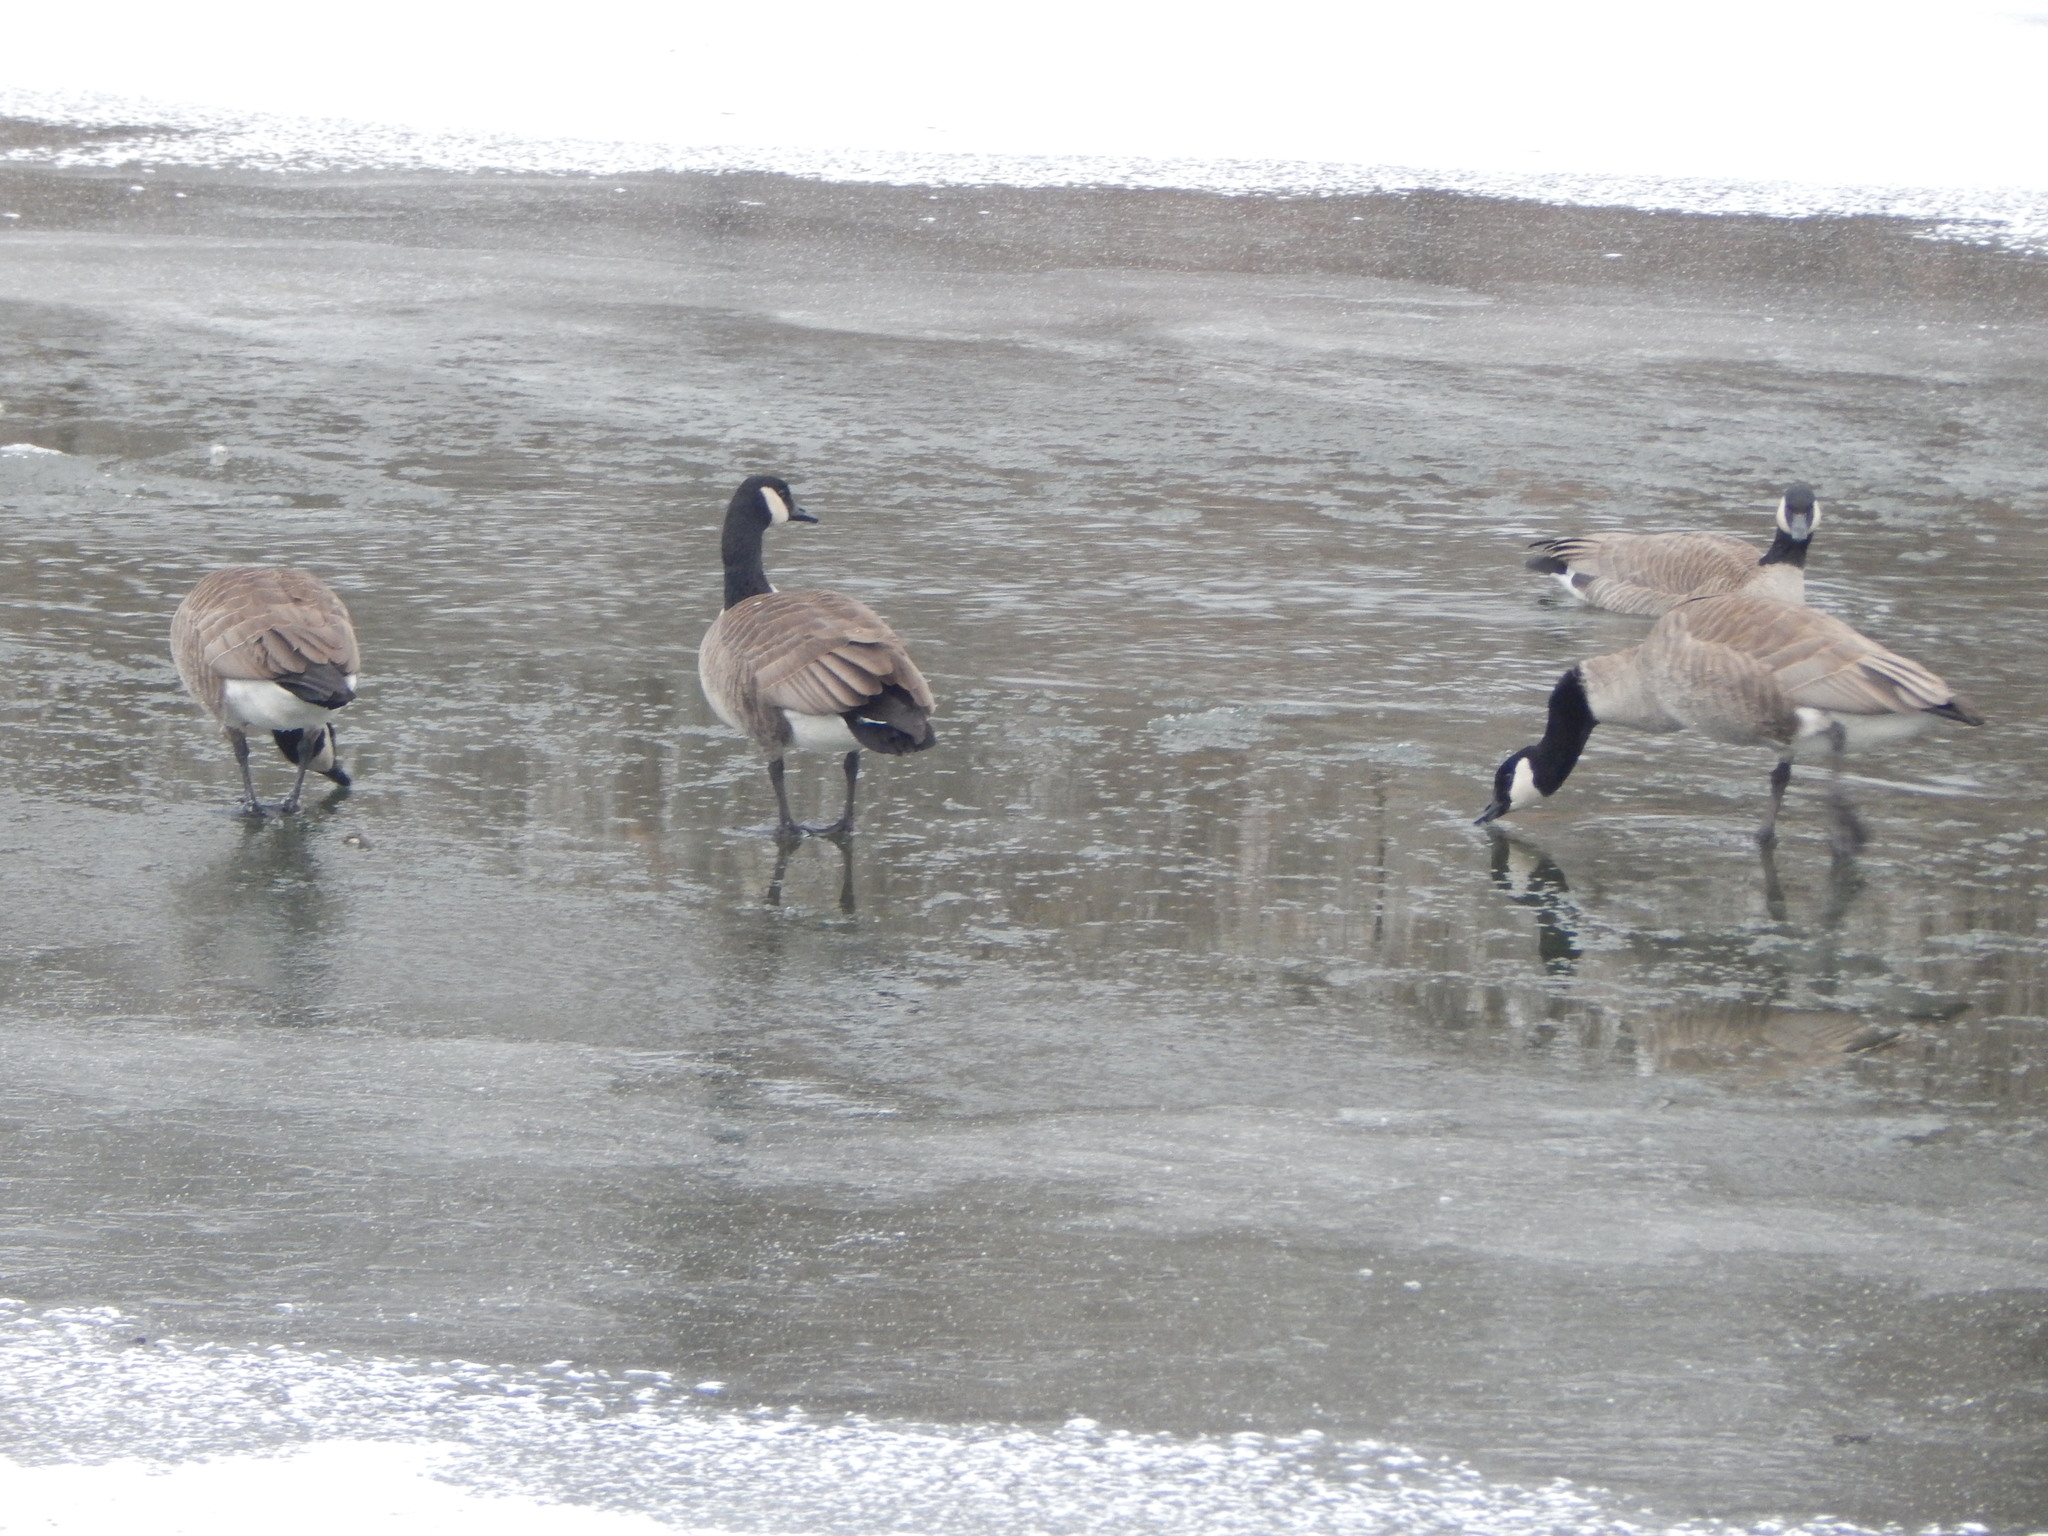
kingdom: Animalia
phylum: Chordata
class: Aves
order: Anseriformes
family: Anatidae
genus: Branta
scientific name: Branta canadensis
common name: Canada goose
